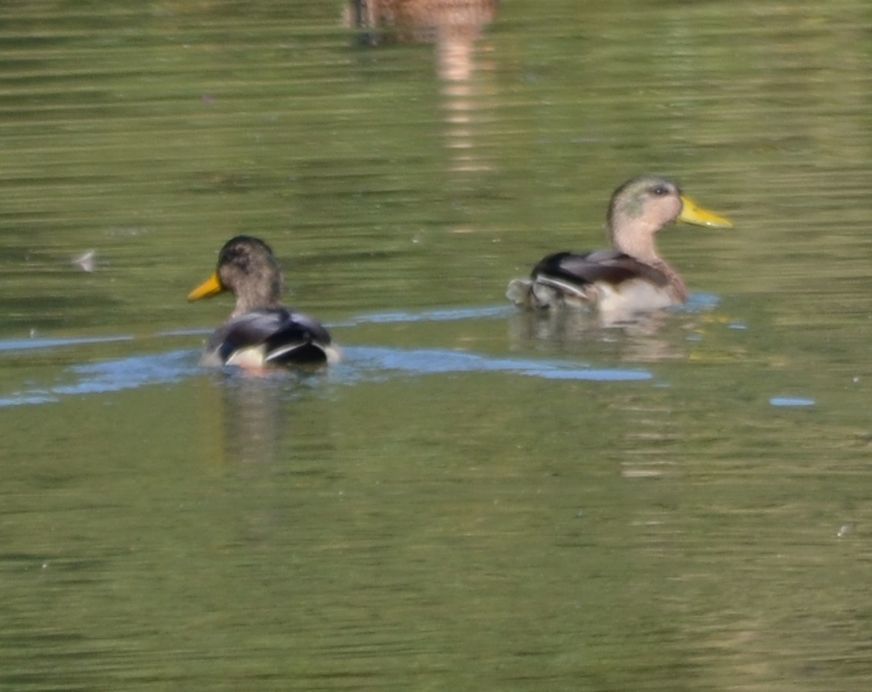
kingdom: Animalia
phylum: Chordata
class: Aves
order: Anseriformes
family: Anatidae
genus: Anas
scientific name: Anas platyrhynchos
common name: Mallard
